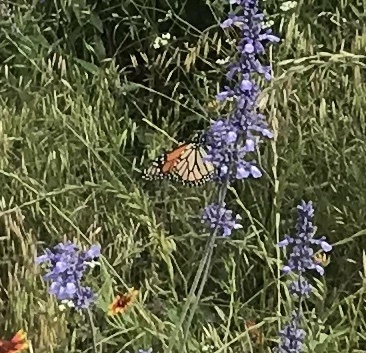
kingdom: Animalia
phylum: Arthropoda
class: Insecta
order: Lepidoptera
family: Nymphalidae
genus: Danaus
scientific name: Danaus plexippus
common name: Monarch
